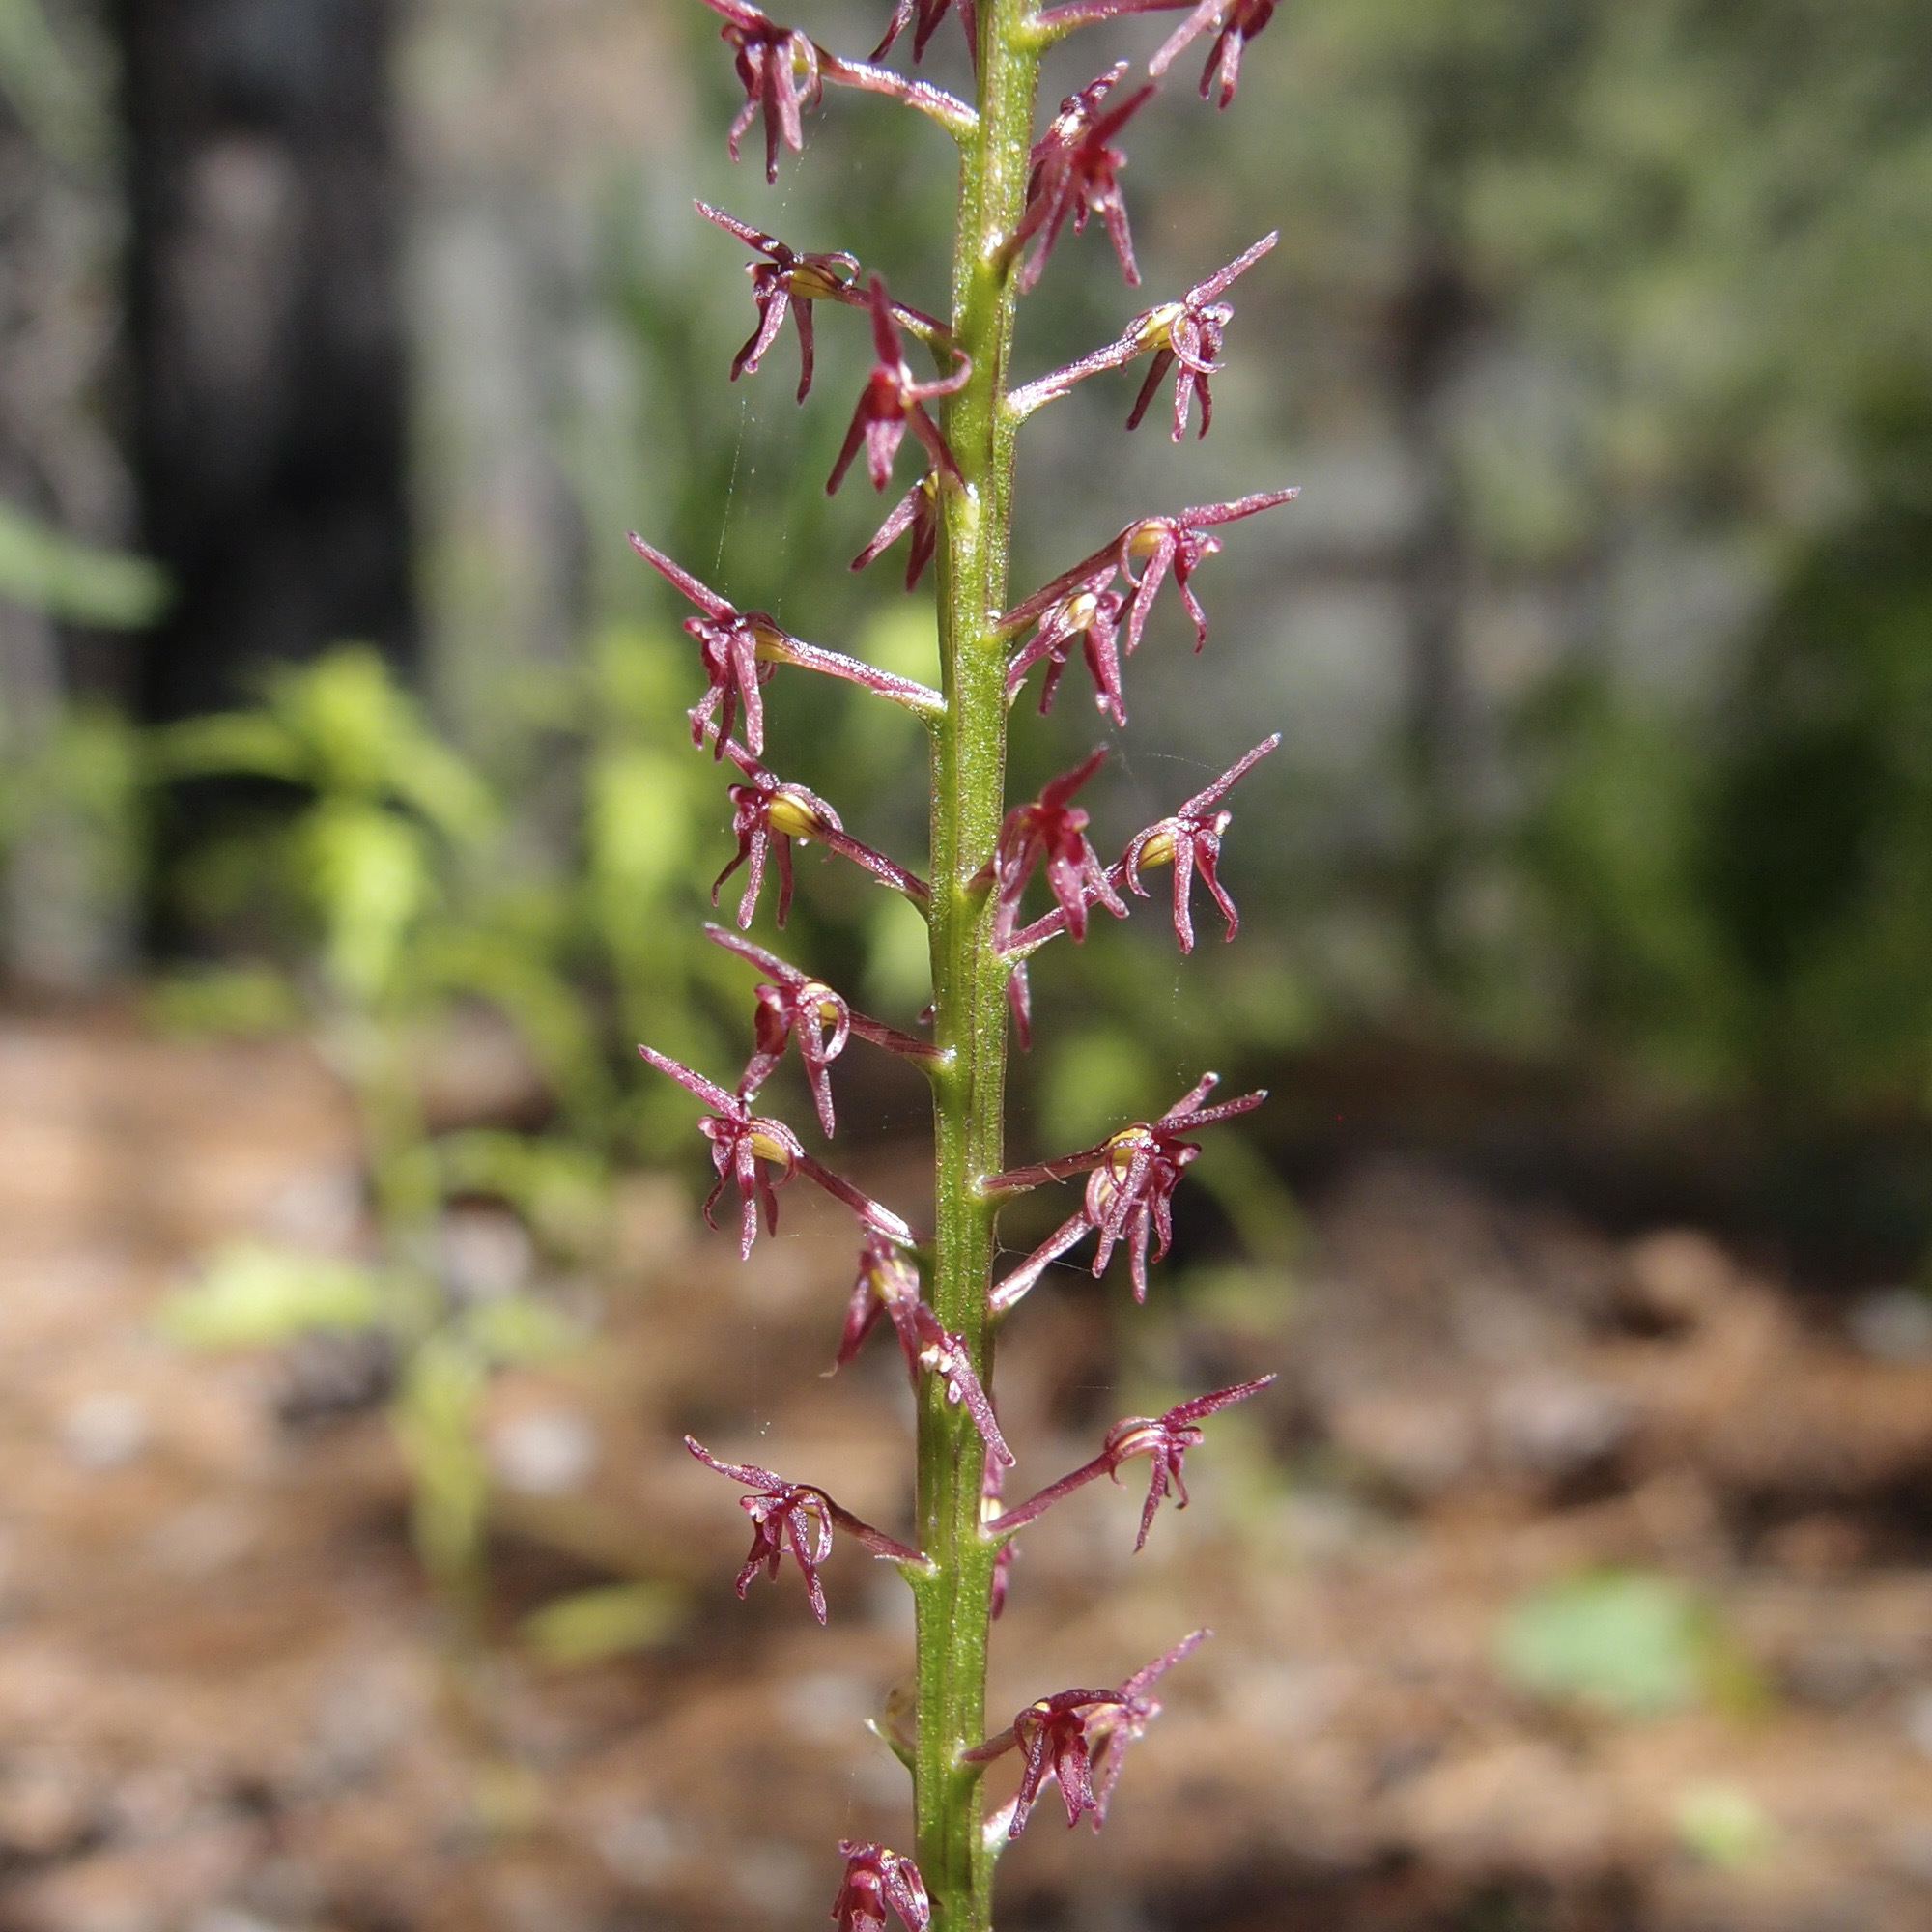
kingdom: Plantae
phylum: Tracheophyta
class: Liliopsida
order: Asparagales
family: Orchidaceae
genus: Tamayorkis
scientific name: Tamayorkis porphyrea
